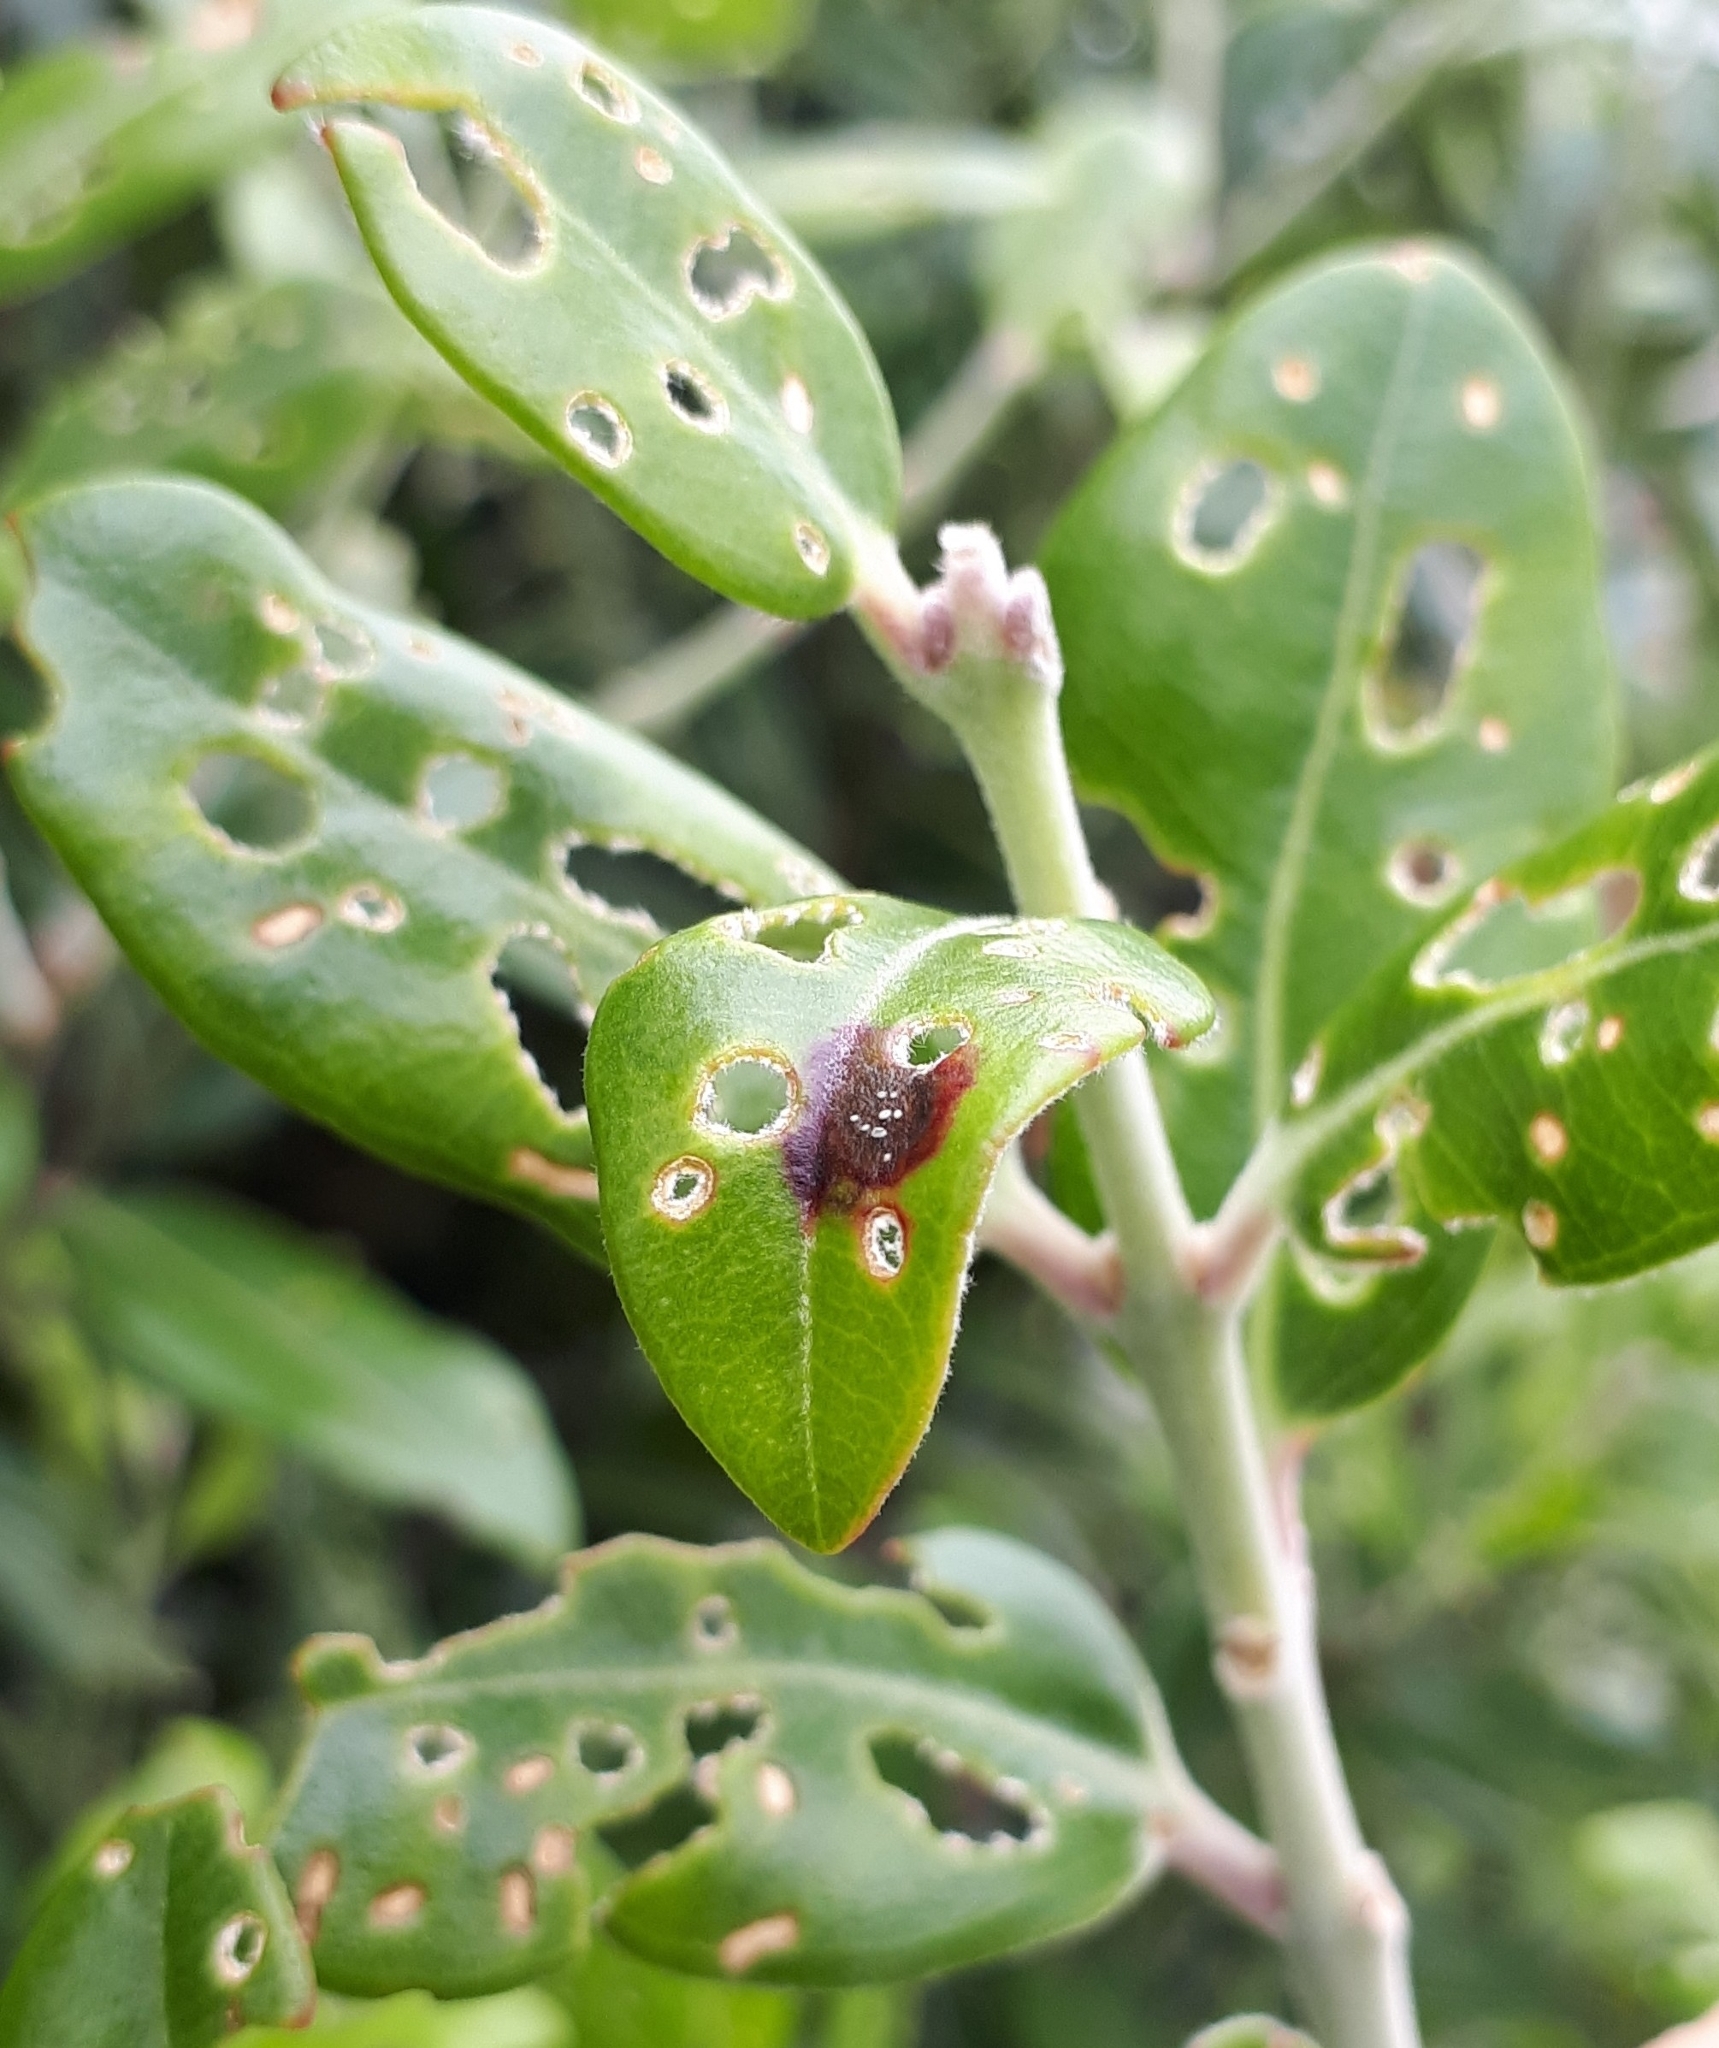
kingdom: Fungi
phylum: Basidiomycota
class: Pucciniomycetes
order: Pucciniales
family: Sphaerophragmiaceae
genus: Austropuccinia
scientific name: Austropuccinia psidii
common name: Myrtle rust
